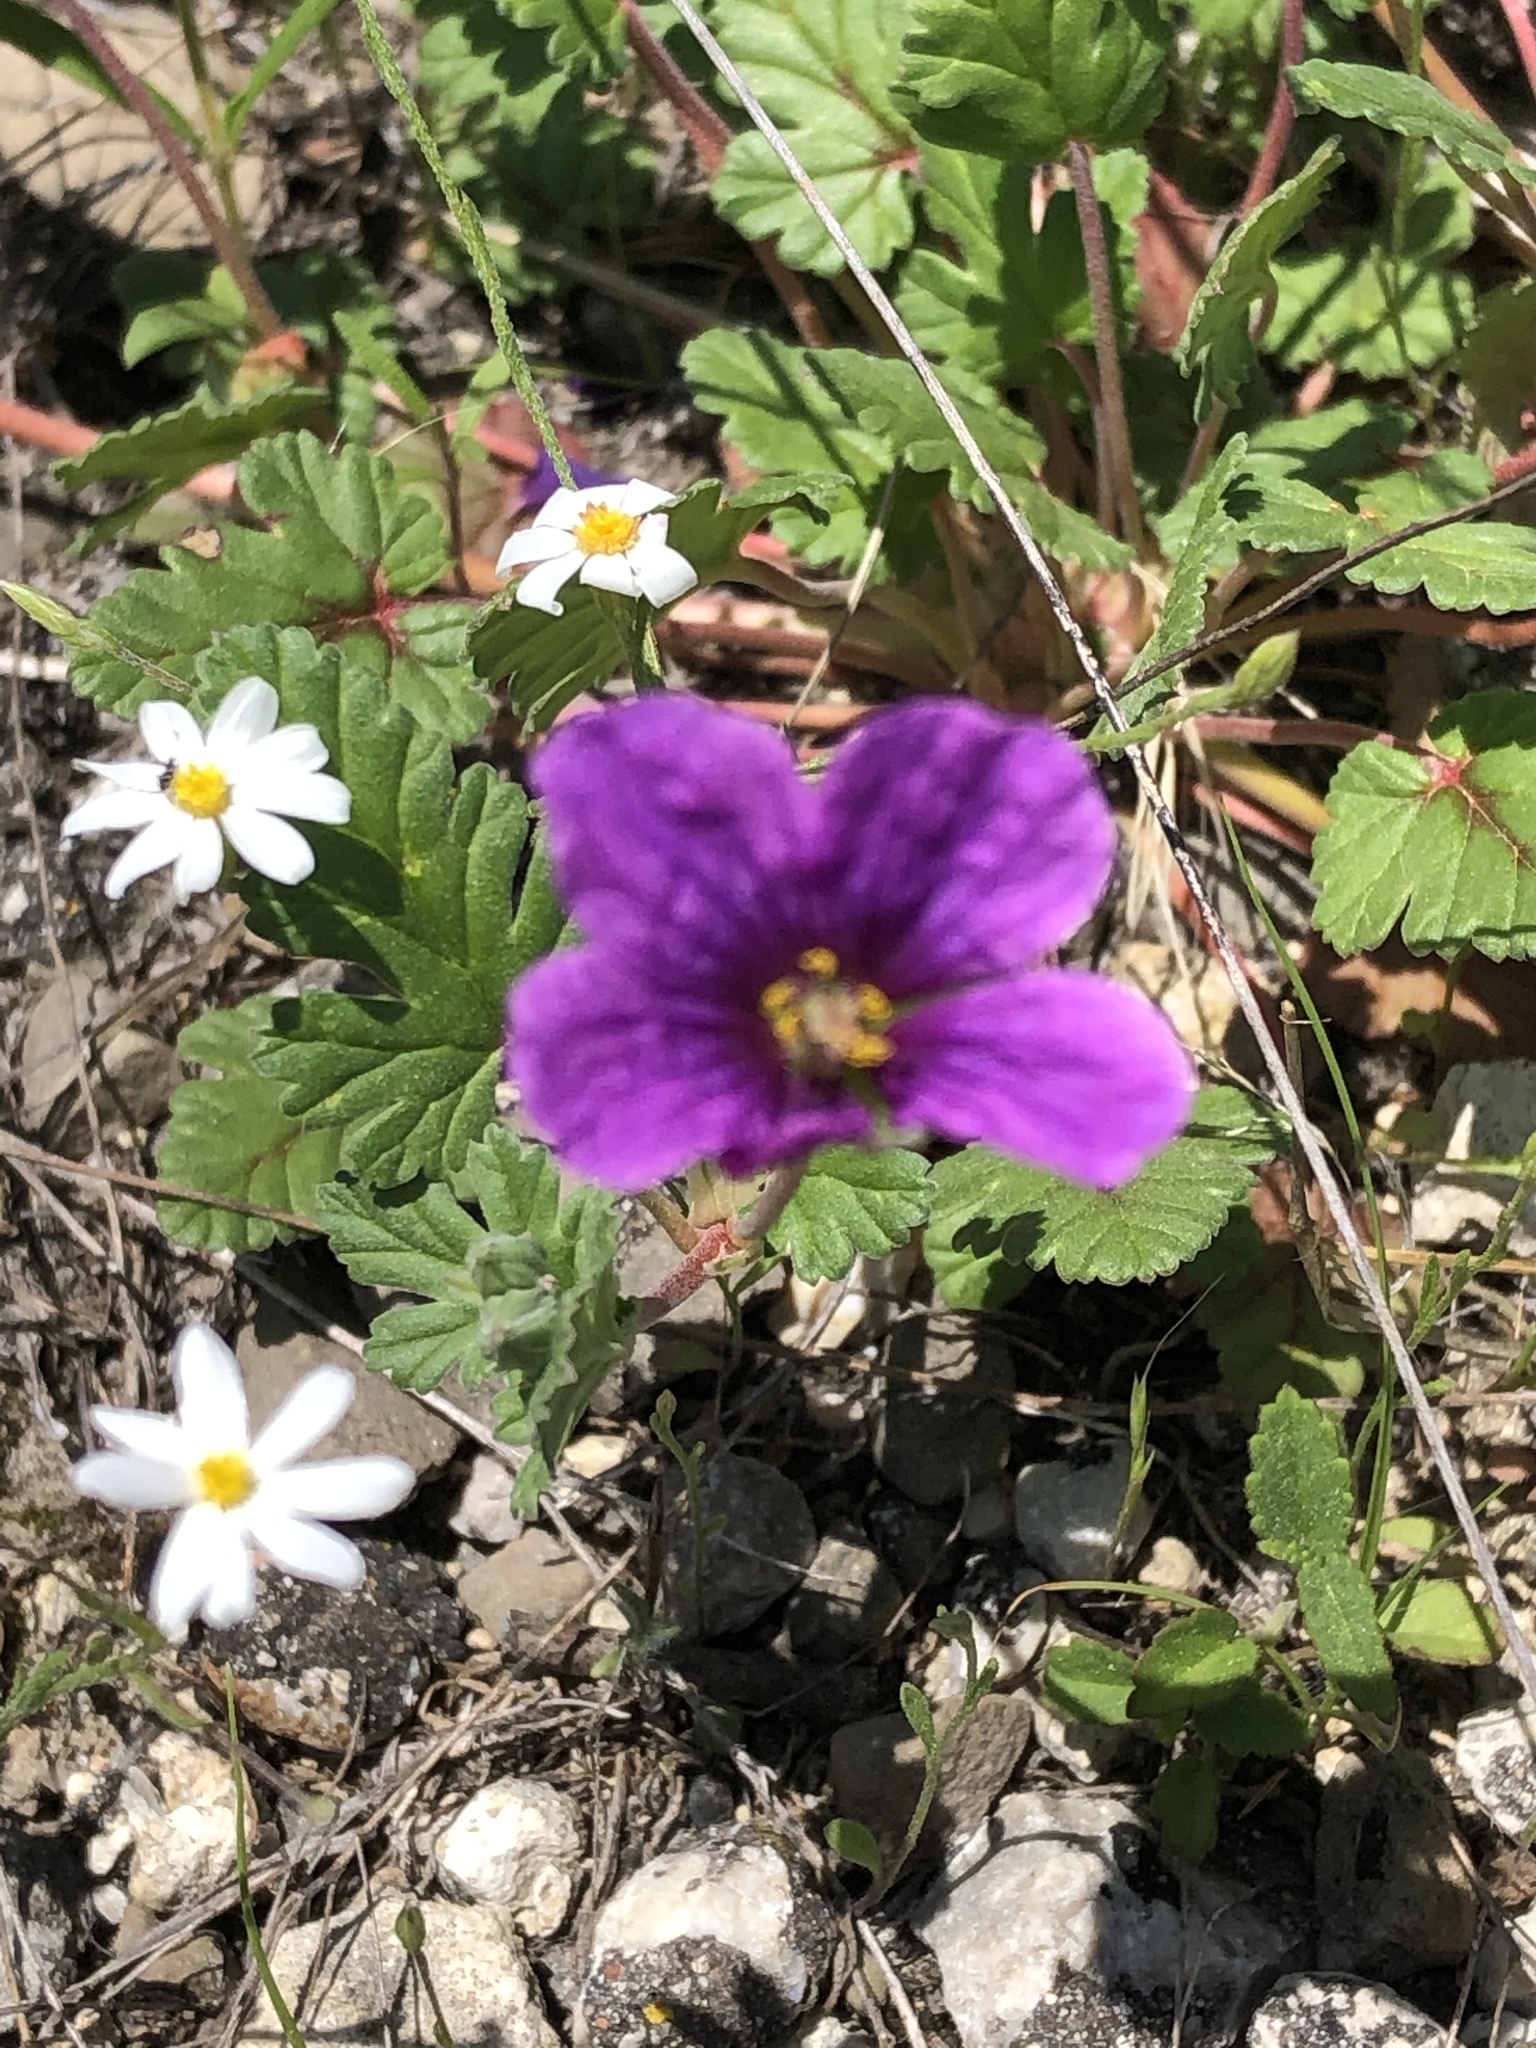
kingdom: Plantae
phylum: Tracheophyta
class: Magnoliopsida
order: Geraniales
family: Geraniaceae
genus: Erodium
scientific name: Erodium texanum
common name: Texas stork's-bill
